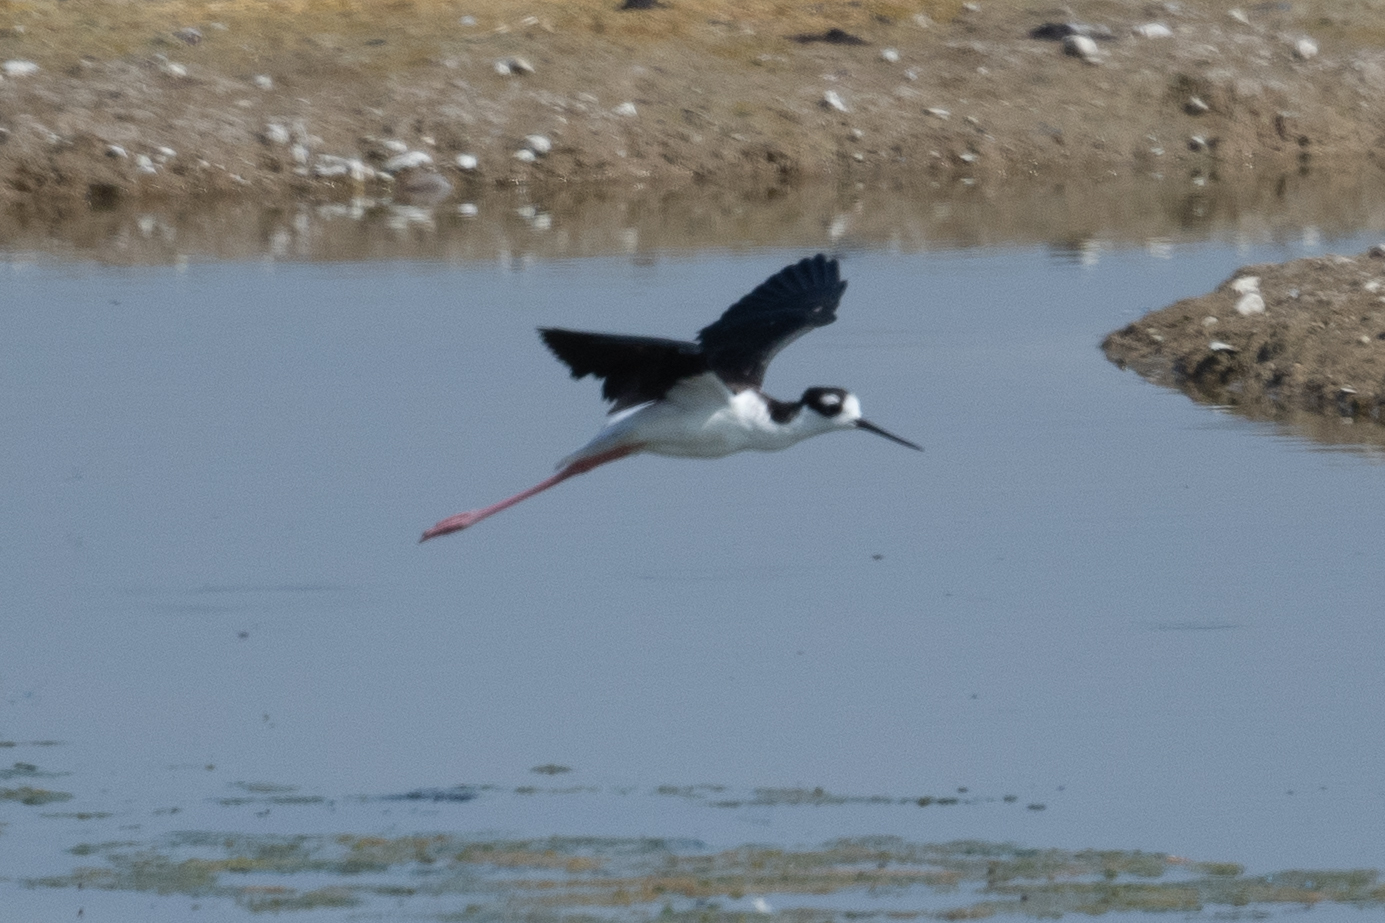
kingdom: Animalia
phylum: Chordata
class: Aves
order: Charadriiformes
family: Recurvirostridae
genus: Himantopus
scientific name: Himantopus mexicanus
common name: Black-necked stilt
